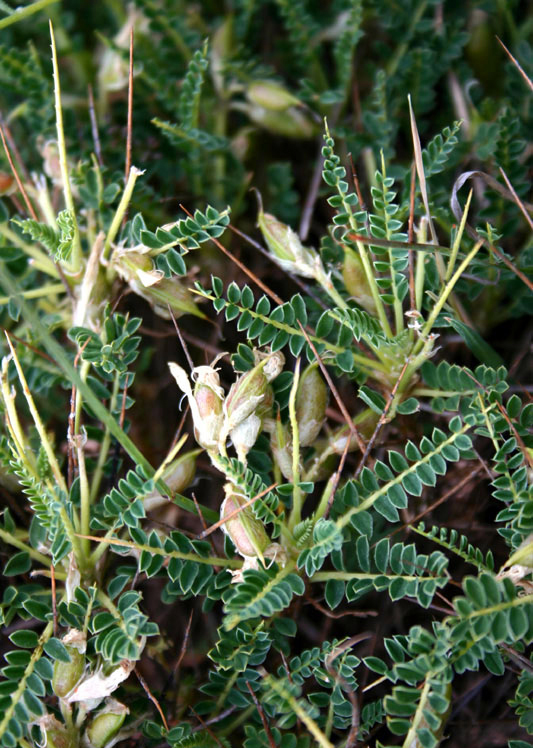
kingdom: Plantae
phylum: Tracheophyta
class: Magnoliopsida
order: Fabales
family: Fabaceae
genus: Astragalus
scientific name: Astragalus genargenteus
